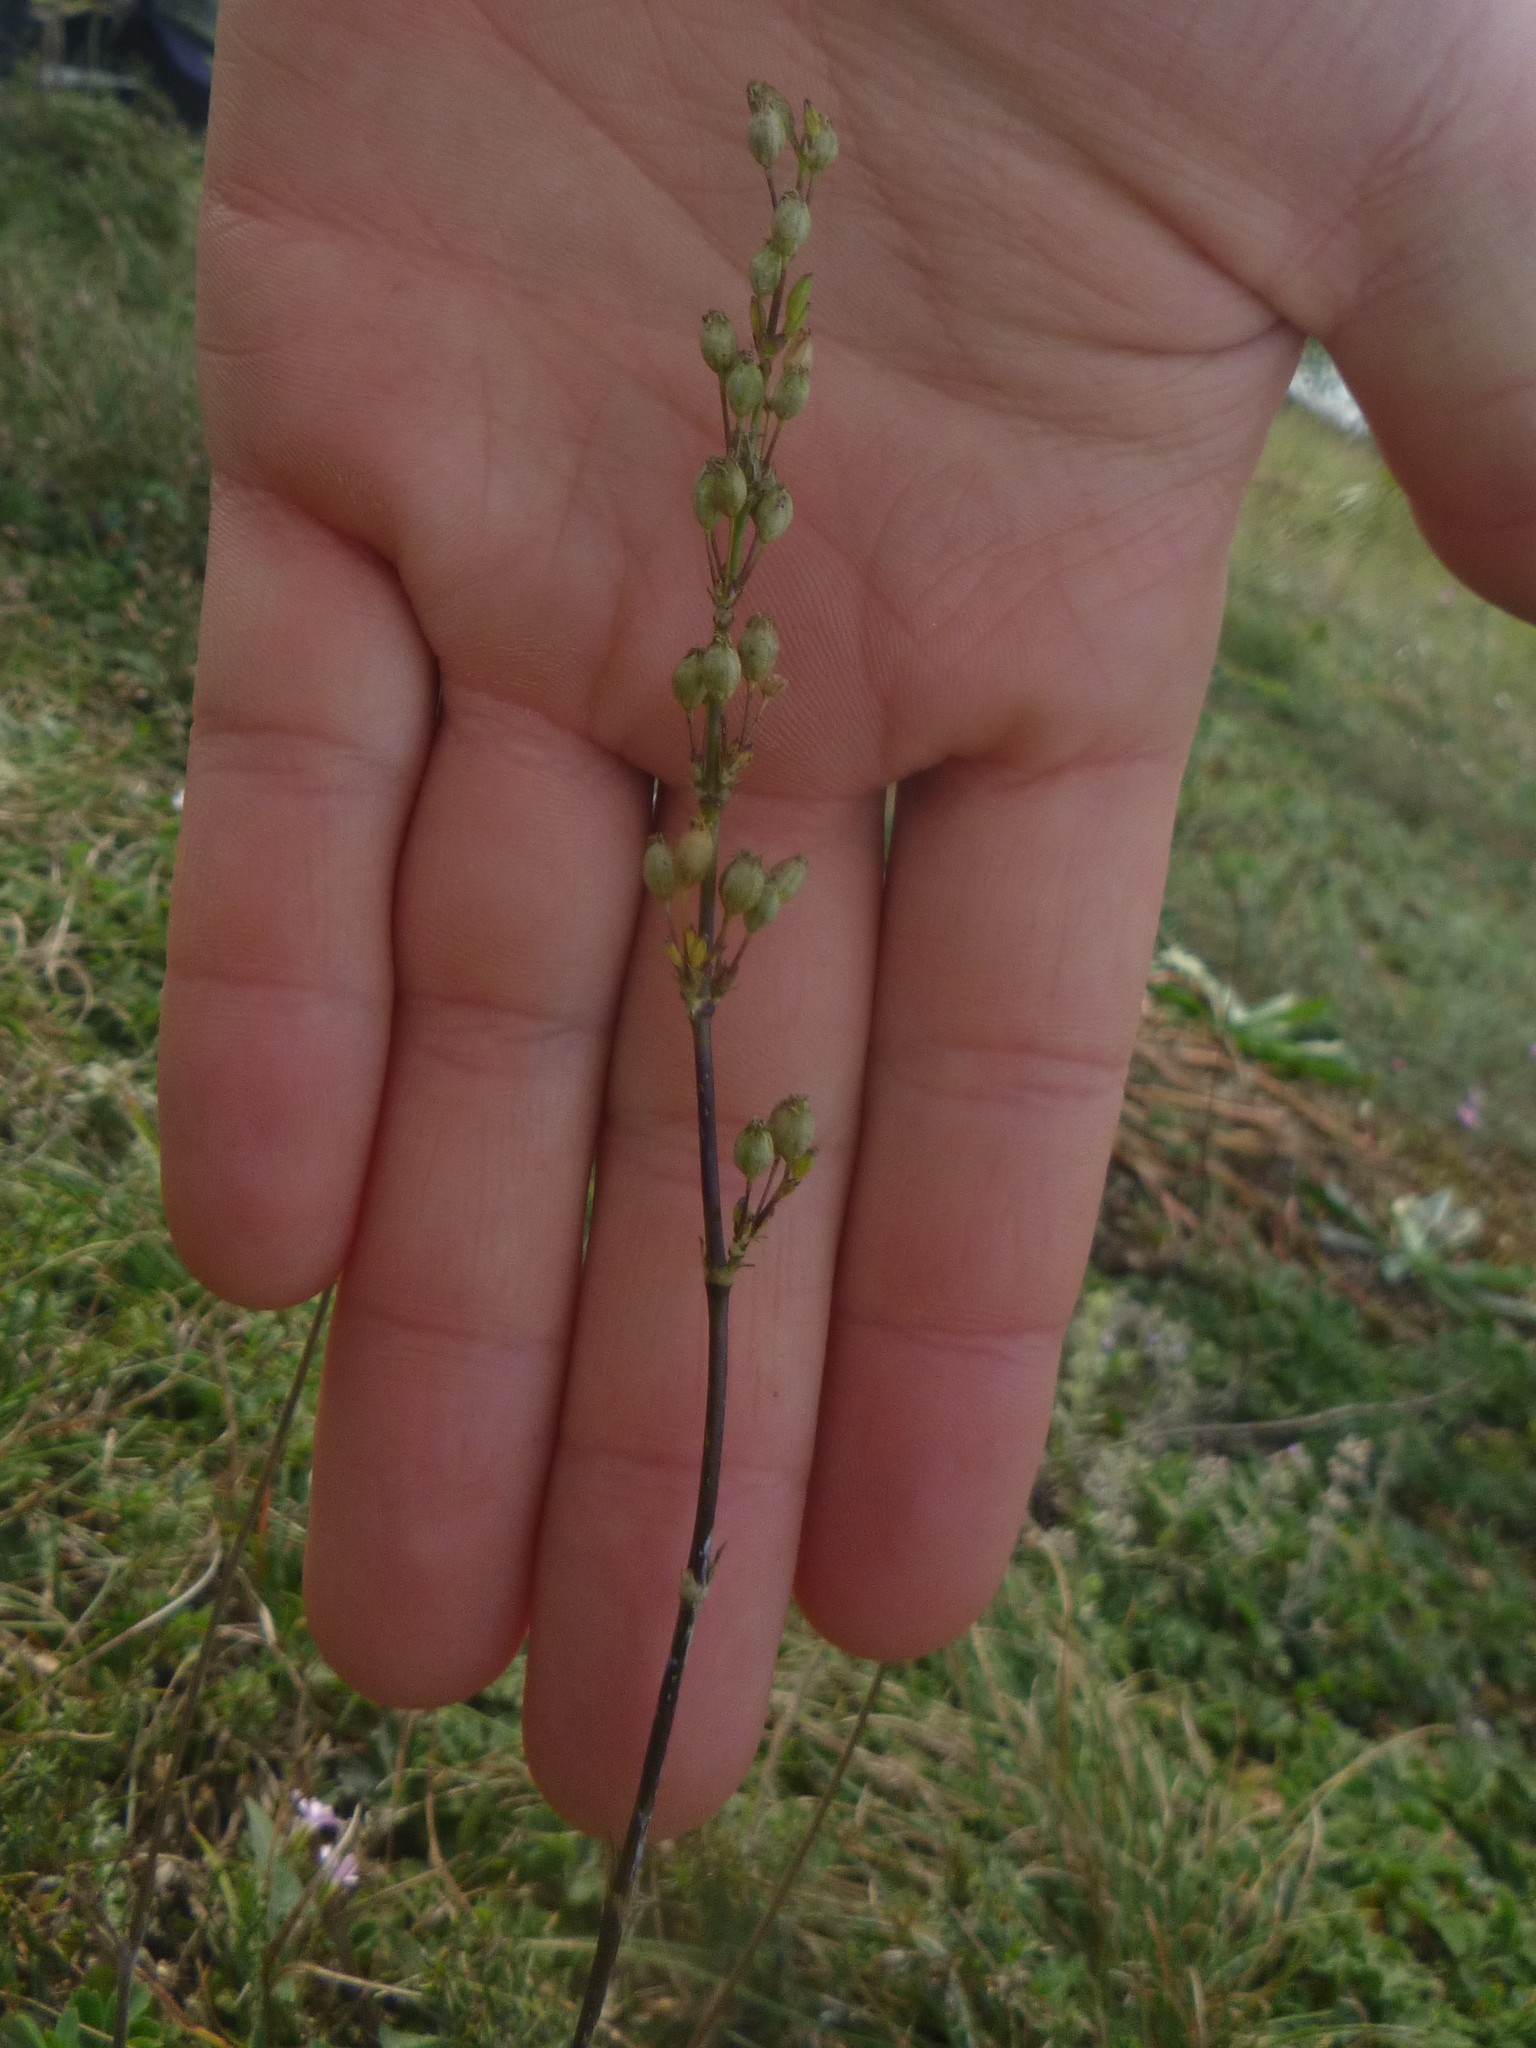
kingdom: Plantae
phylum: Tracheophyta
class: Magnoliopsida
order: Caryophyllales
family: Caryophyllaceae
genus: Silene
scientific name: Silene otites
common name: Spanish catchfly
